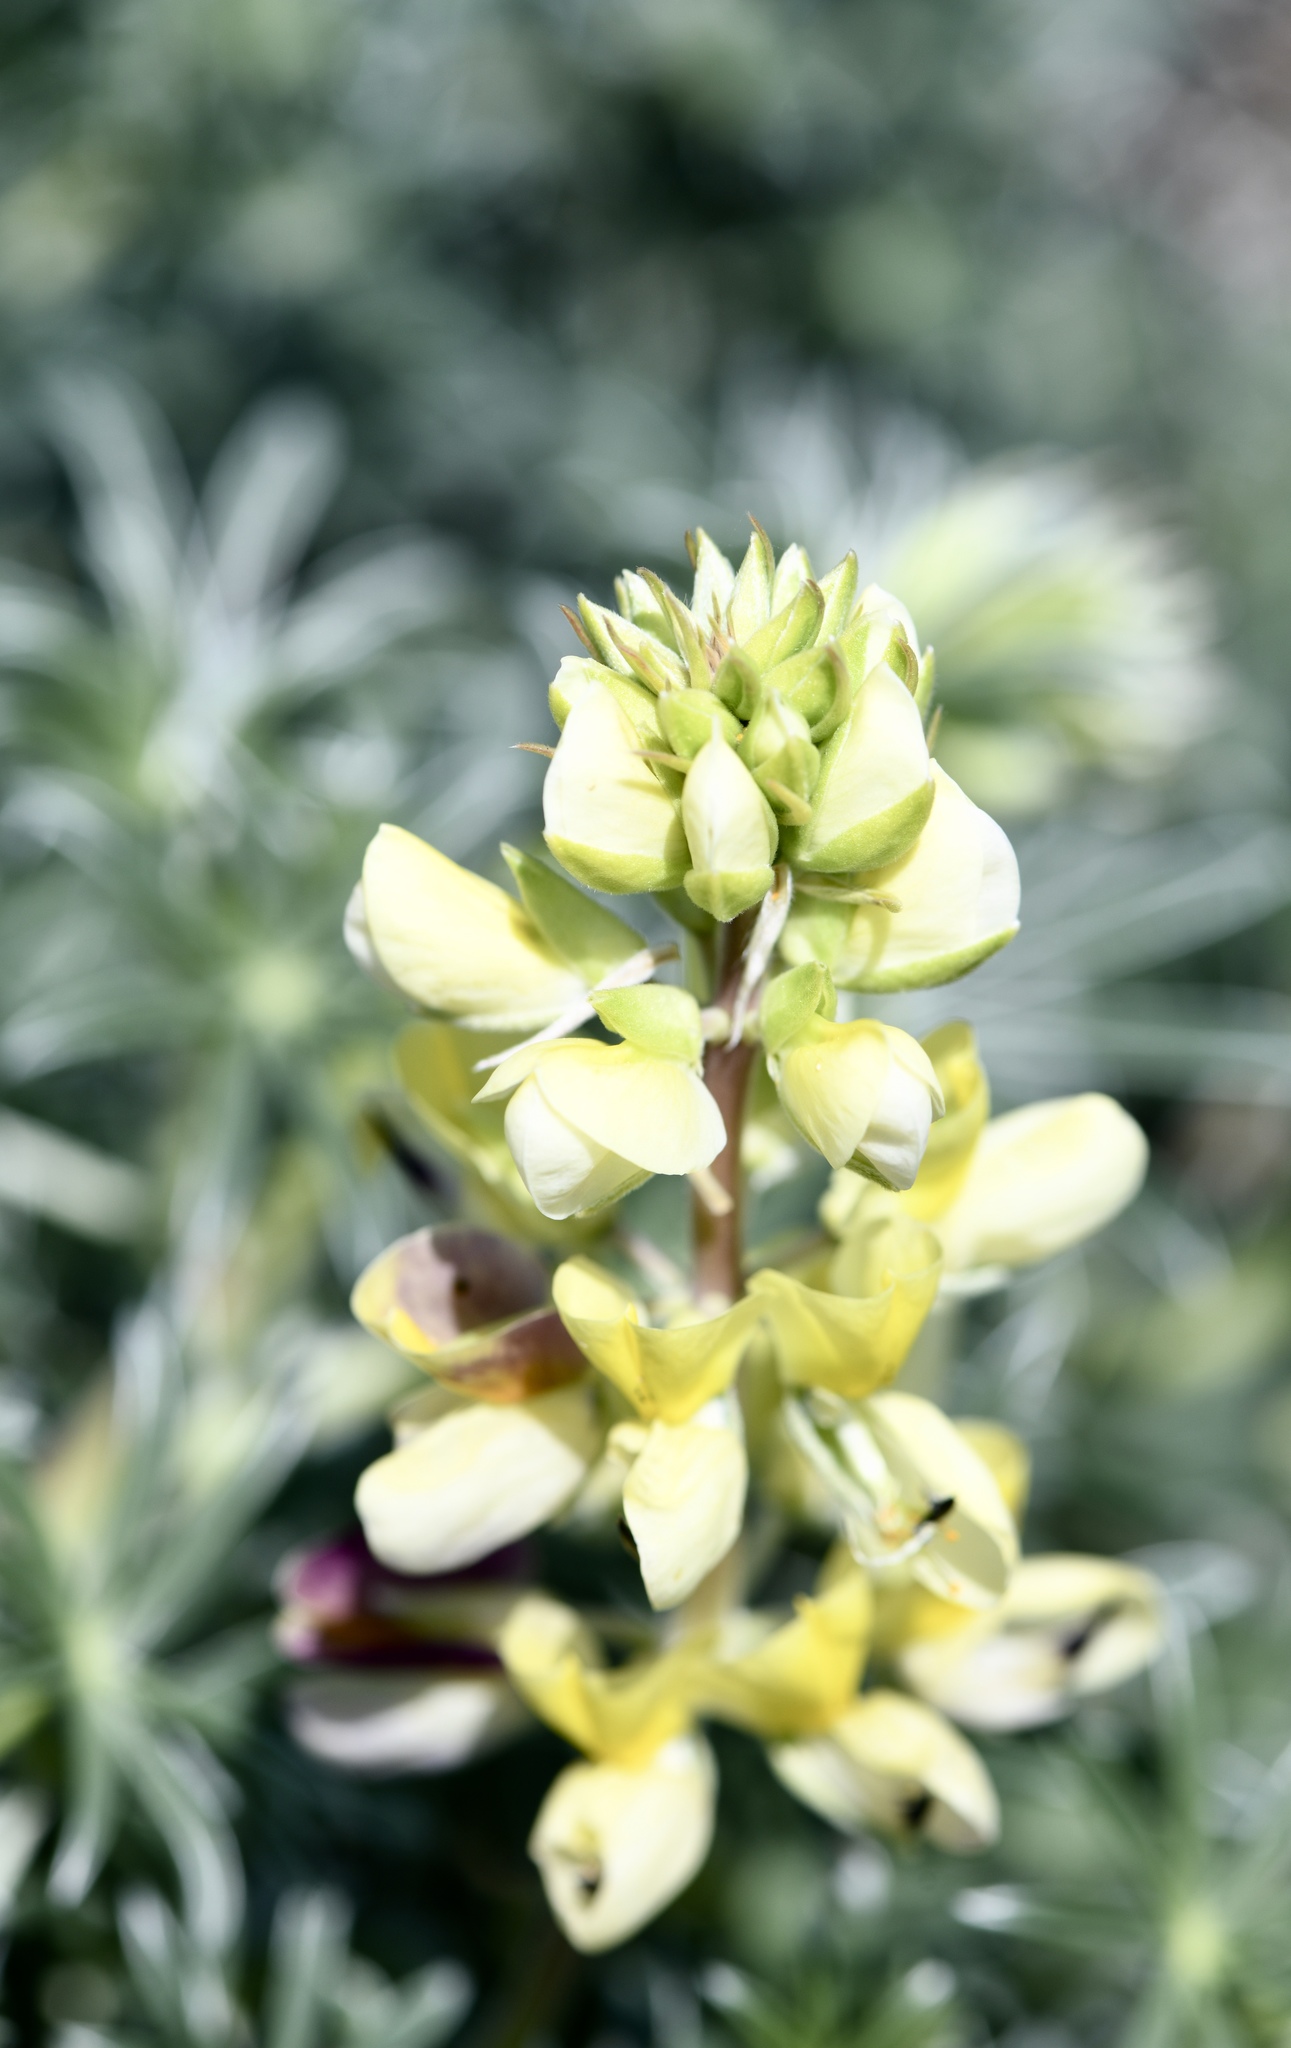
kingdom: Plantae
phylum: Tracheophyta
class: Magnoliopsida
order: Fabales
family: Fabaceae
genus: Lupinus
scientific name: Lupinus arboreus
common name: Yellow bush lupine
